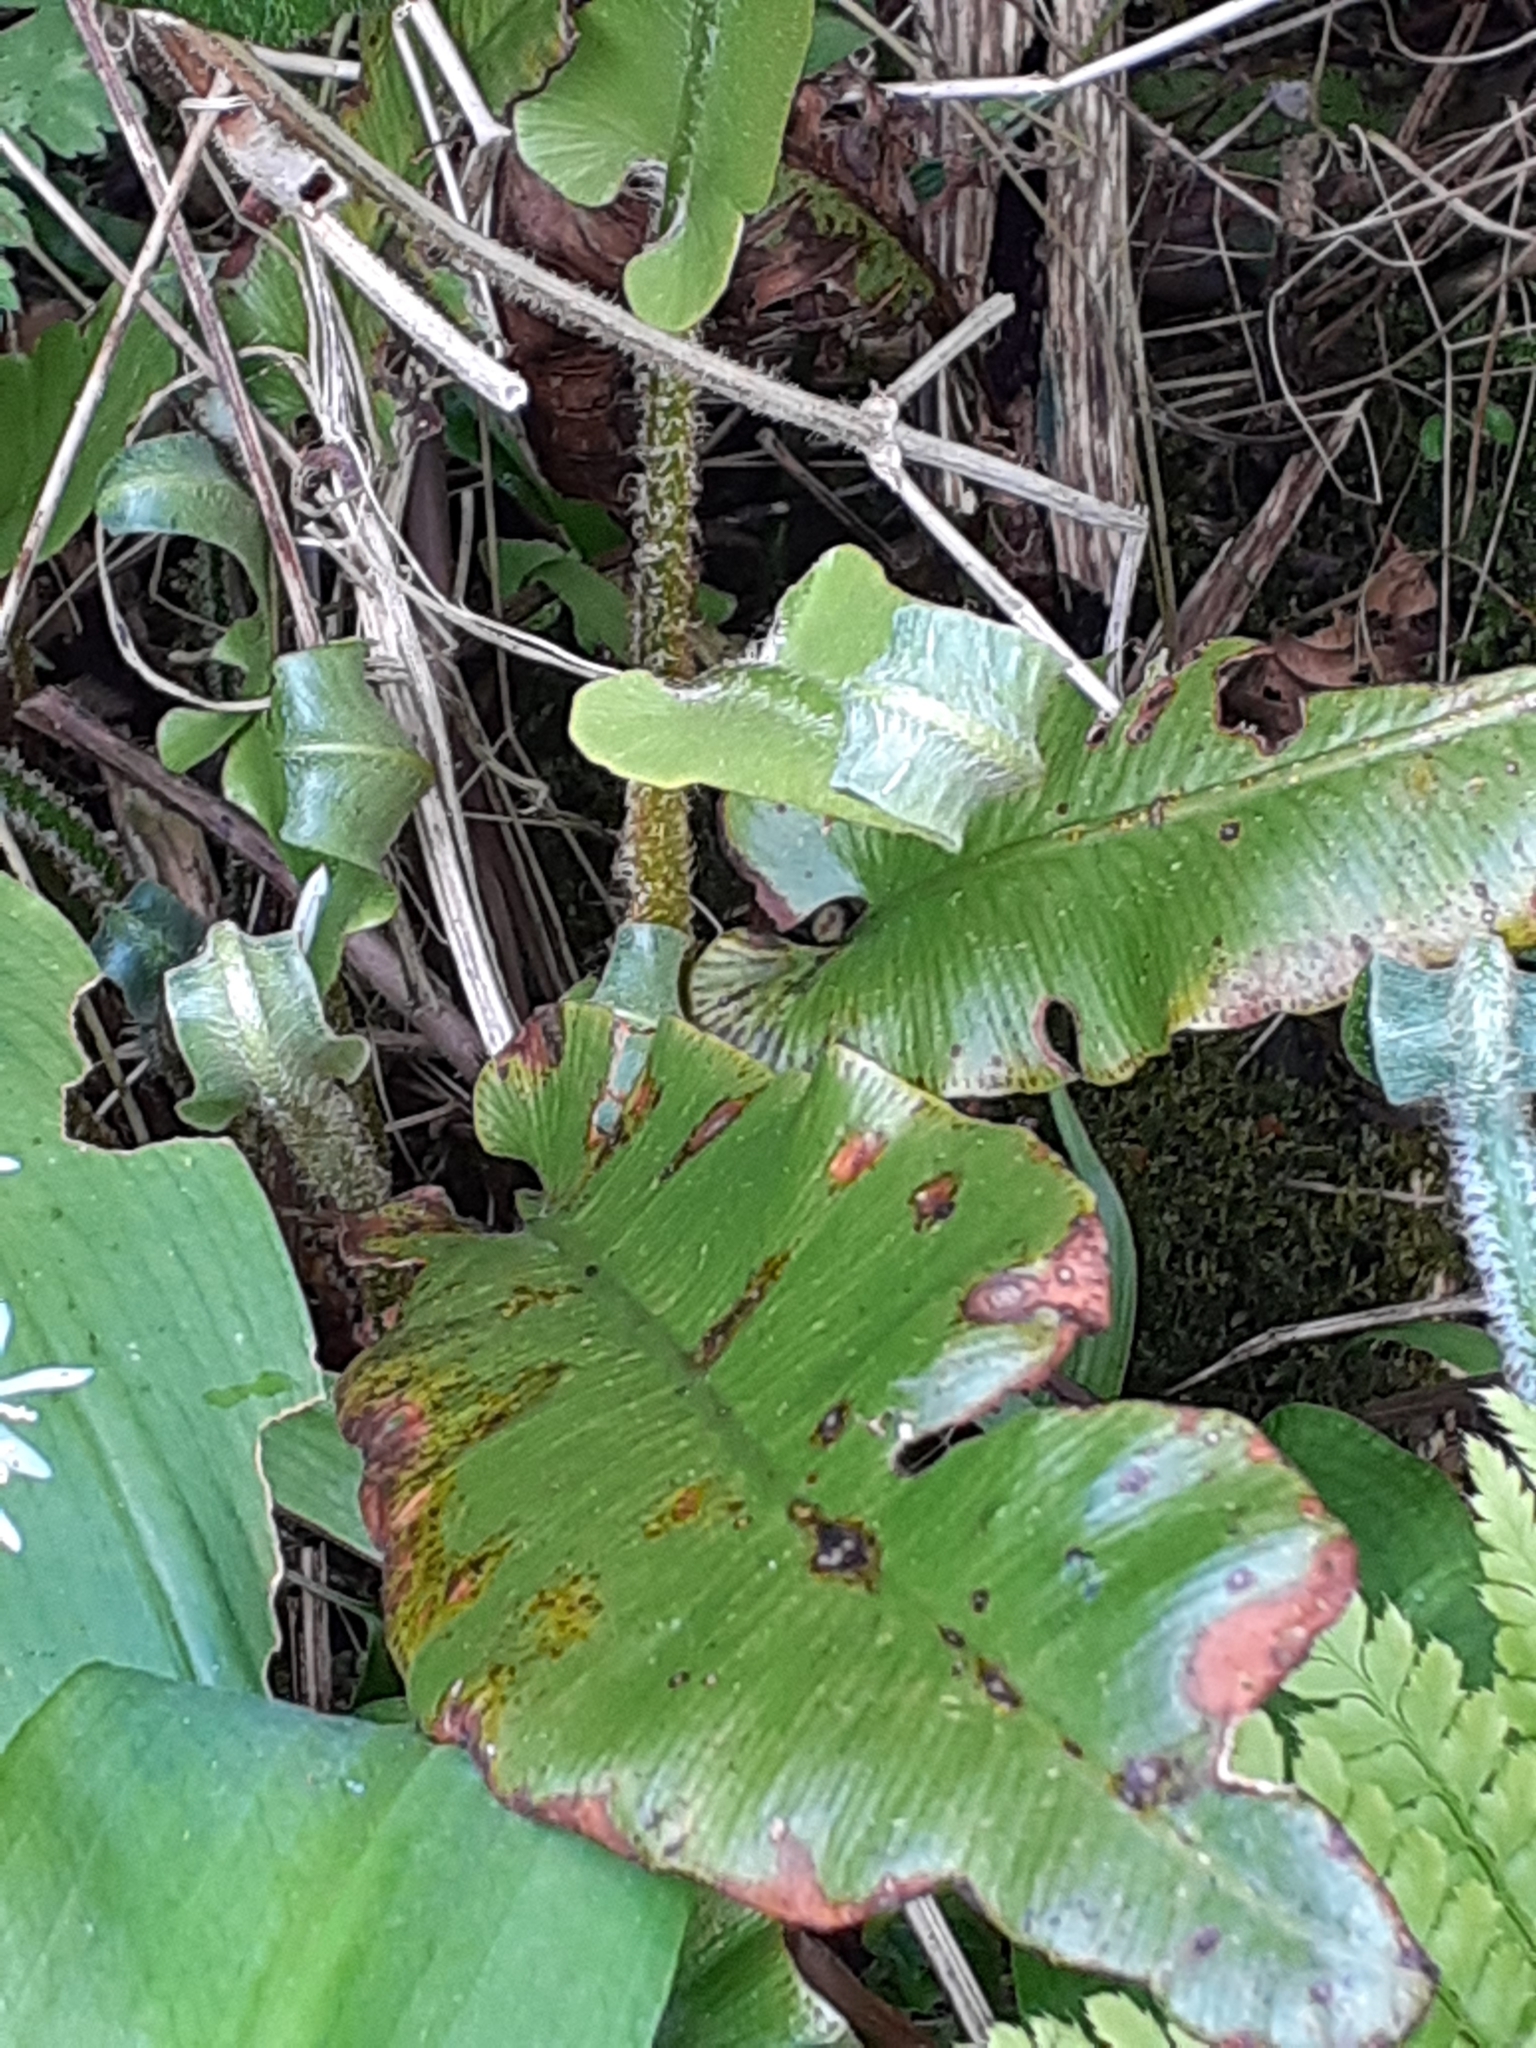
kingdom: Plantae
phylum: Tracheophyta
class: Polypodiopsida
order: Polypodiales
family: Aspleniaceae
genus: Asplenium
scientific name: Asplenium scolopendrium
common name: Hart's-tongue fern
